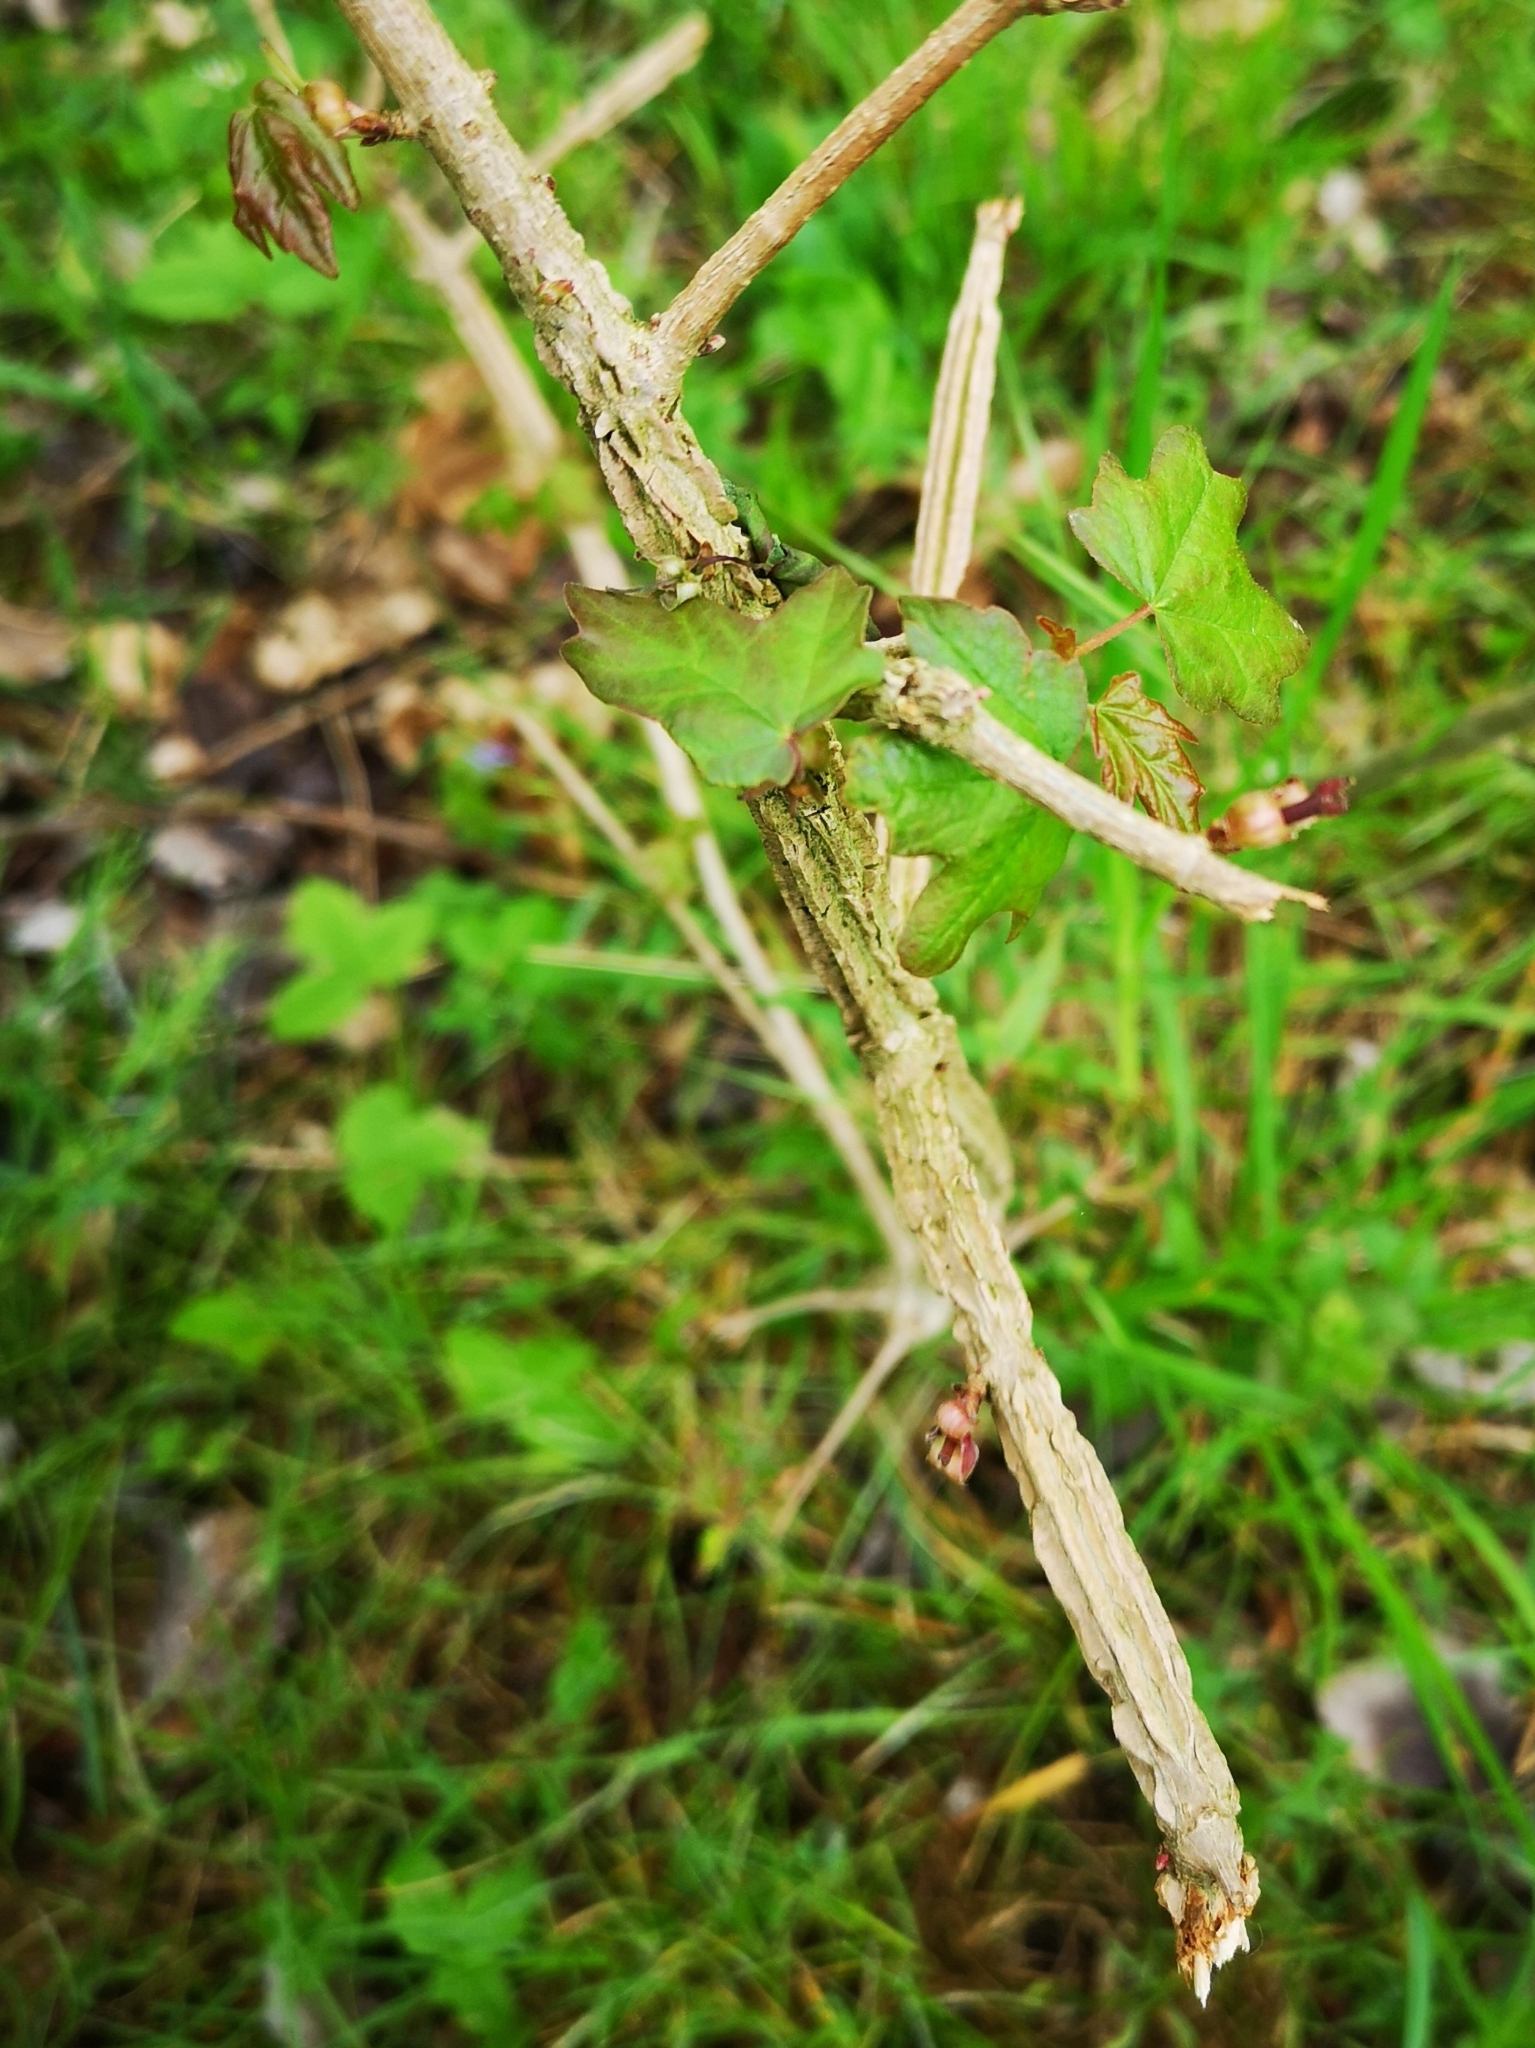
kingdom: Plantae
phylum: Tracheophyta
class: Magnoliopsida
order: Sapindales
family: Sapindaceae
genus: Acer
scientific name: Acer campestre
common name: Field maple
